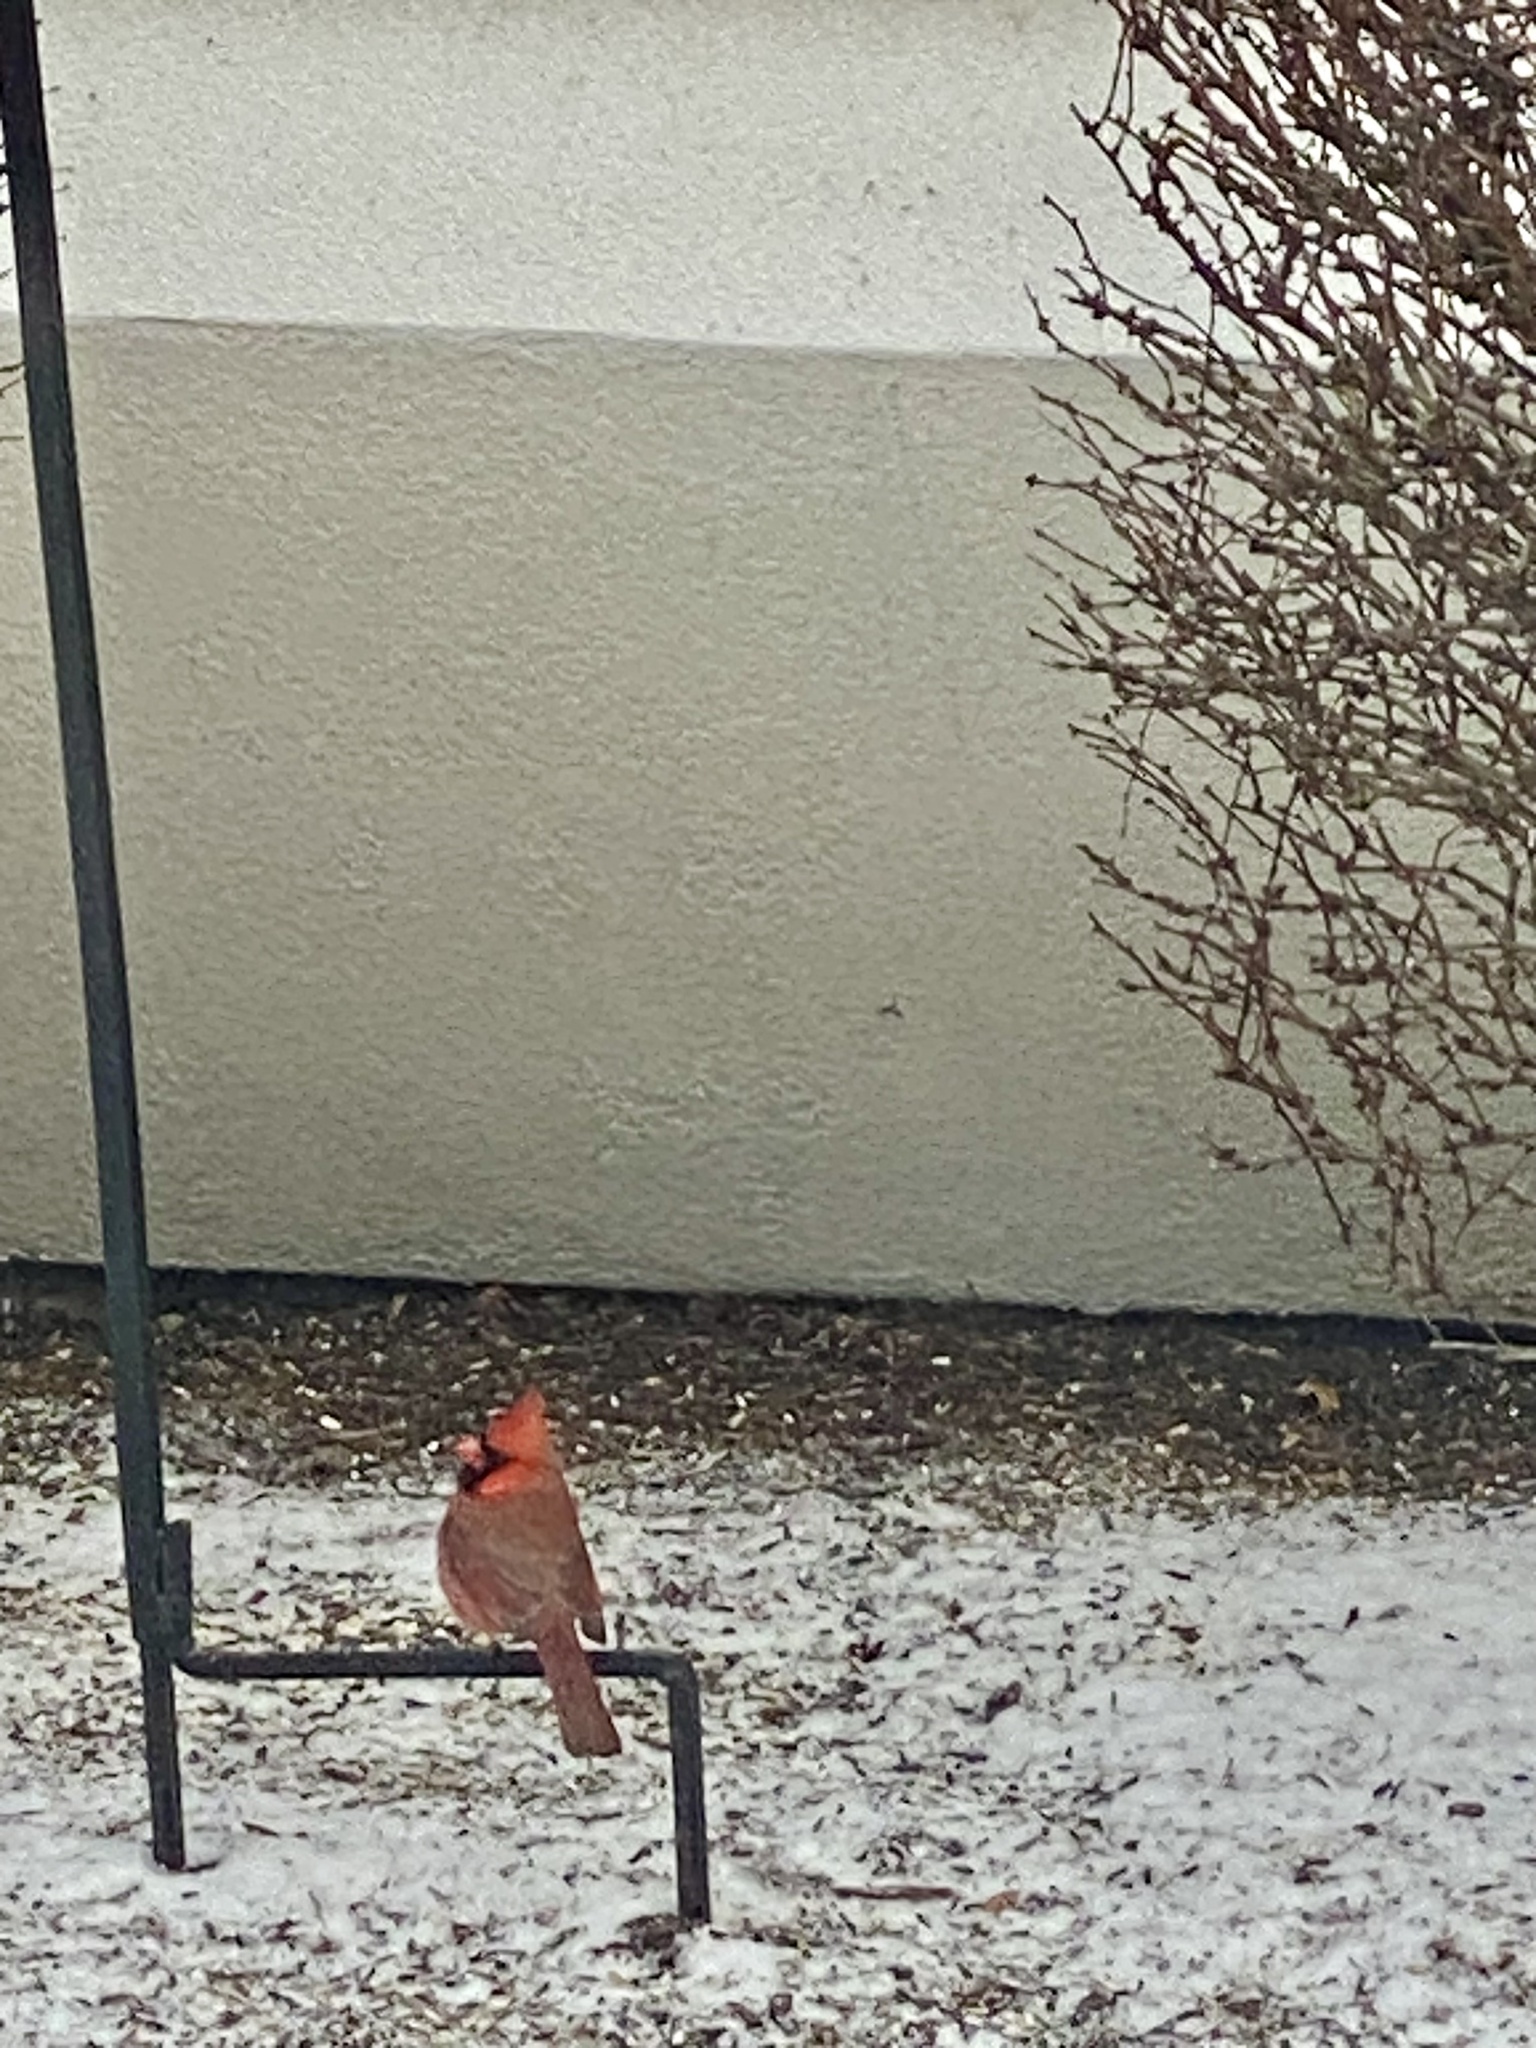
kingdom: Animalia
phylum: Chordata
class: Aves
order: Passeriformes
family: Cardinalidae
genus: Cardinalis
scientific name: Cardinalis cardinalis
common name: Northern cardinal
